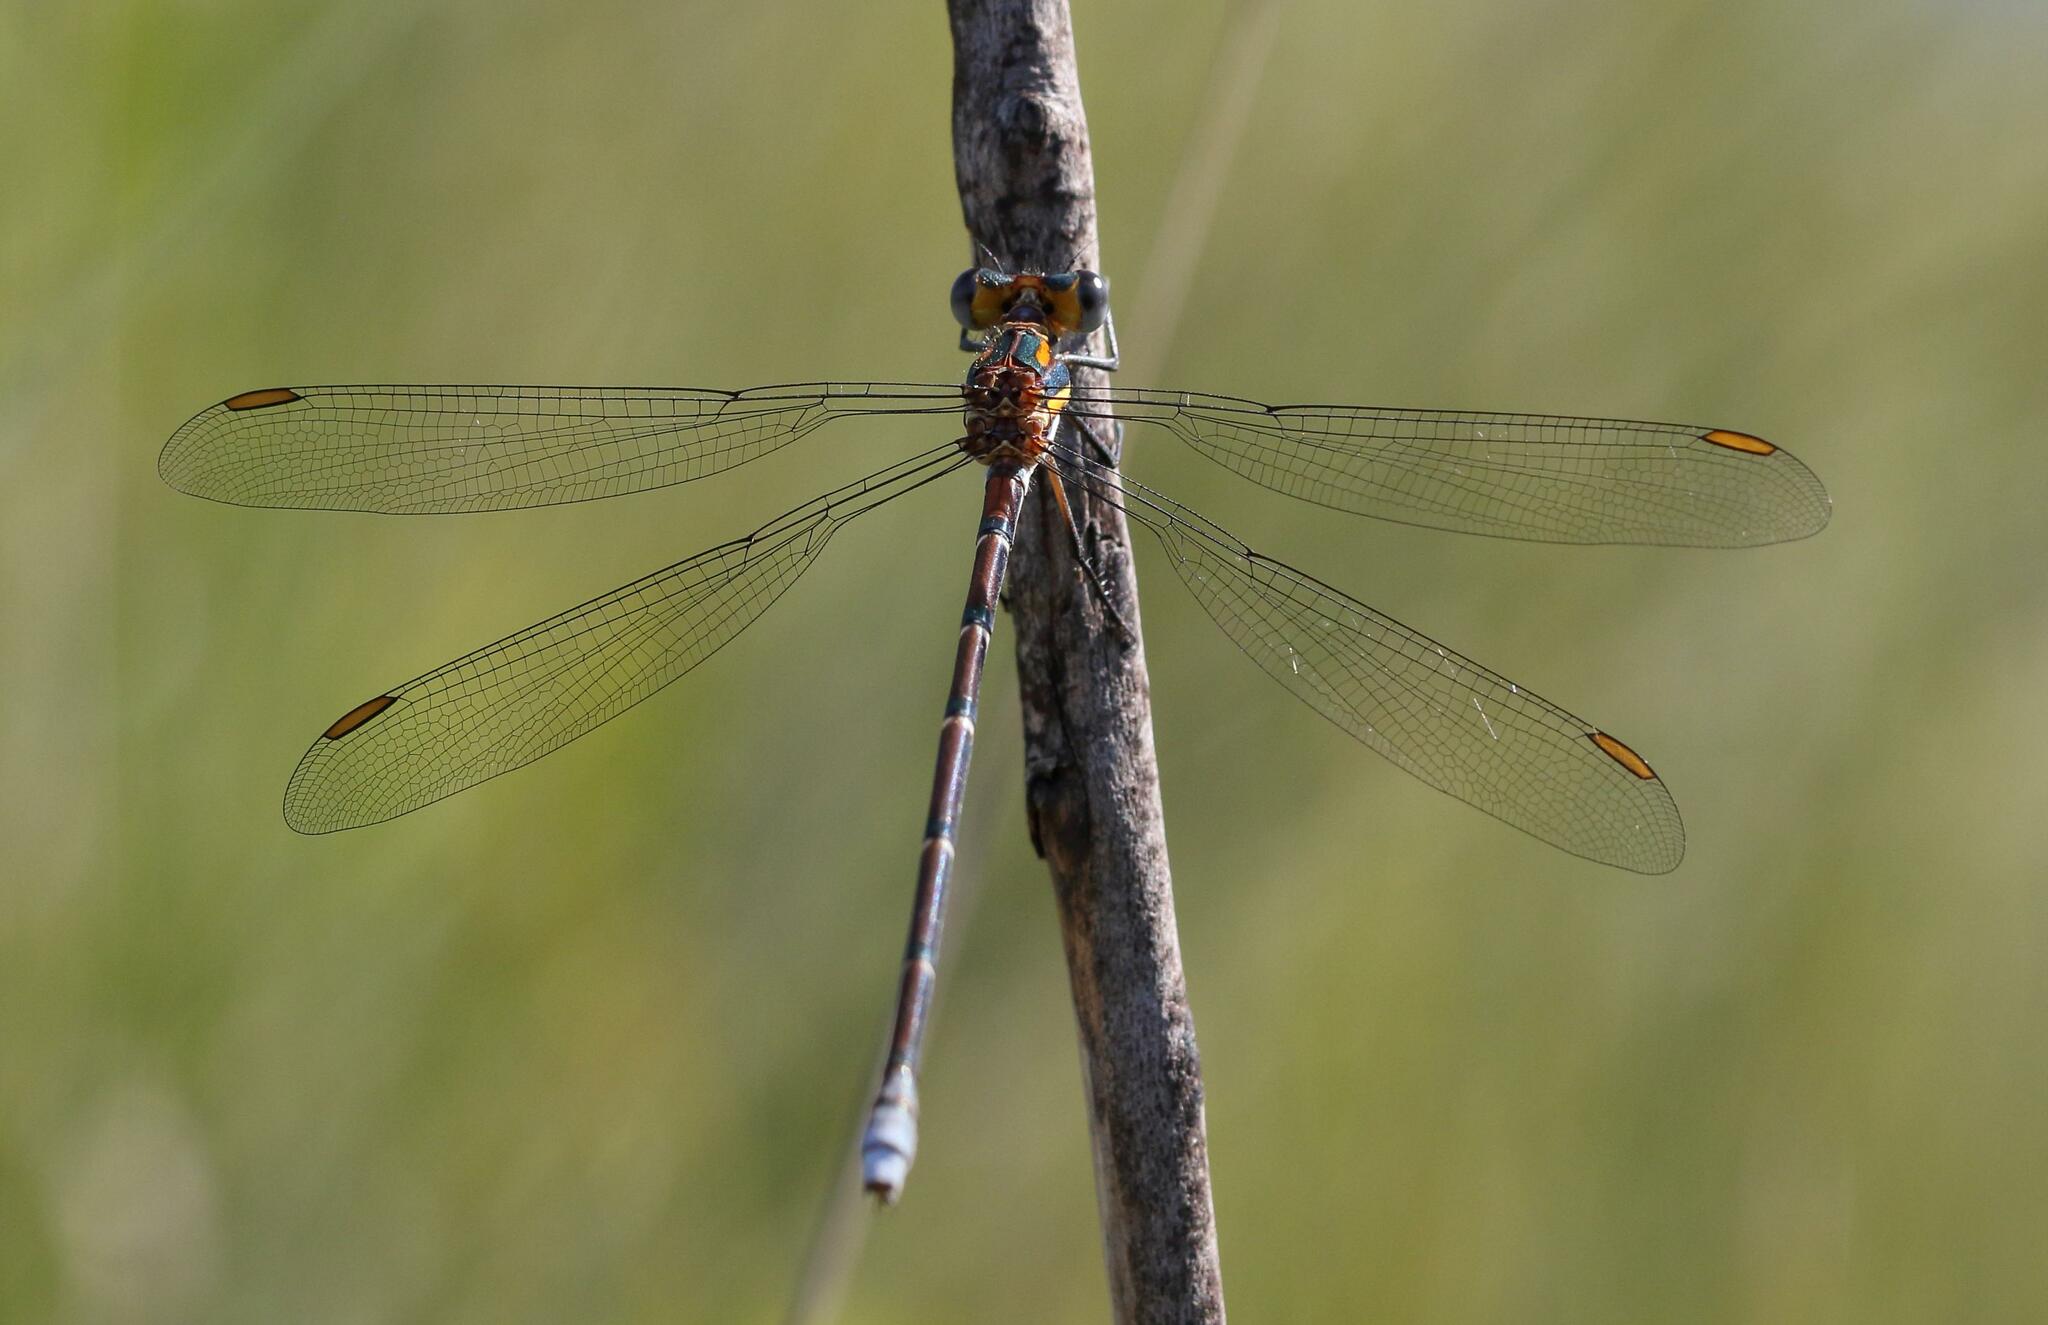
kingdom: Animalia
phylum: Arthropoda
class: Insecta
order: Odonata
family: Synlestidae
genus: Chlorolestes
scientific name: Chlorolestes conspicuus
